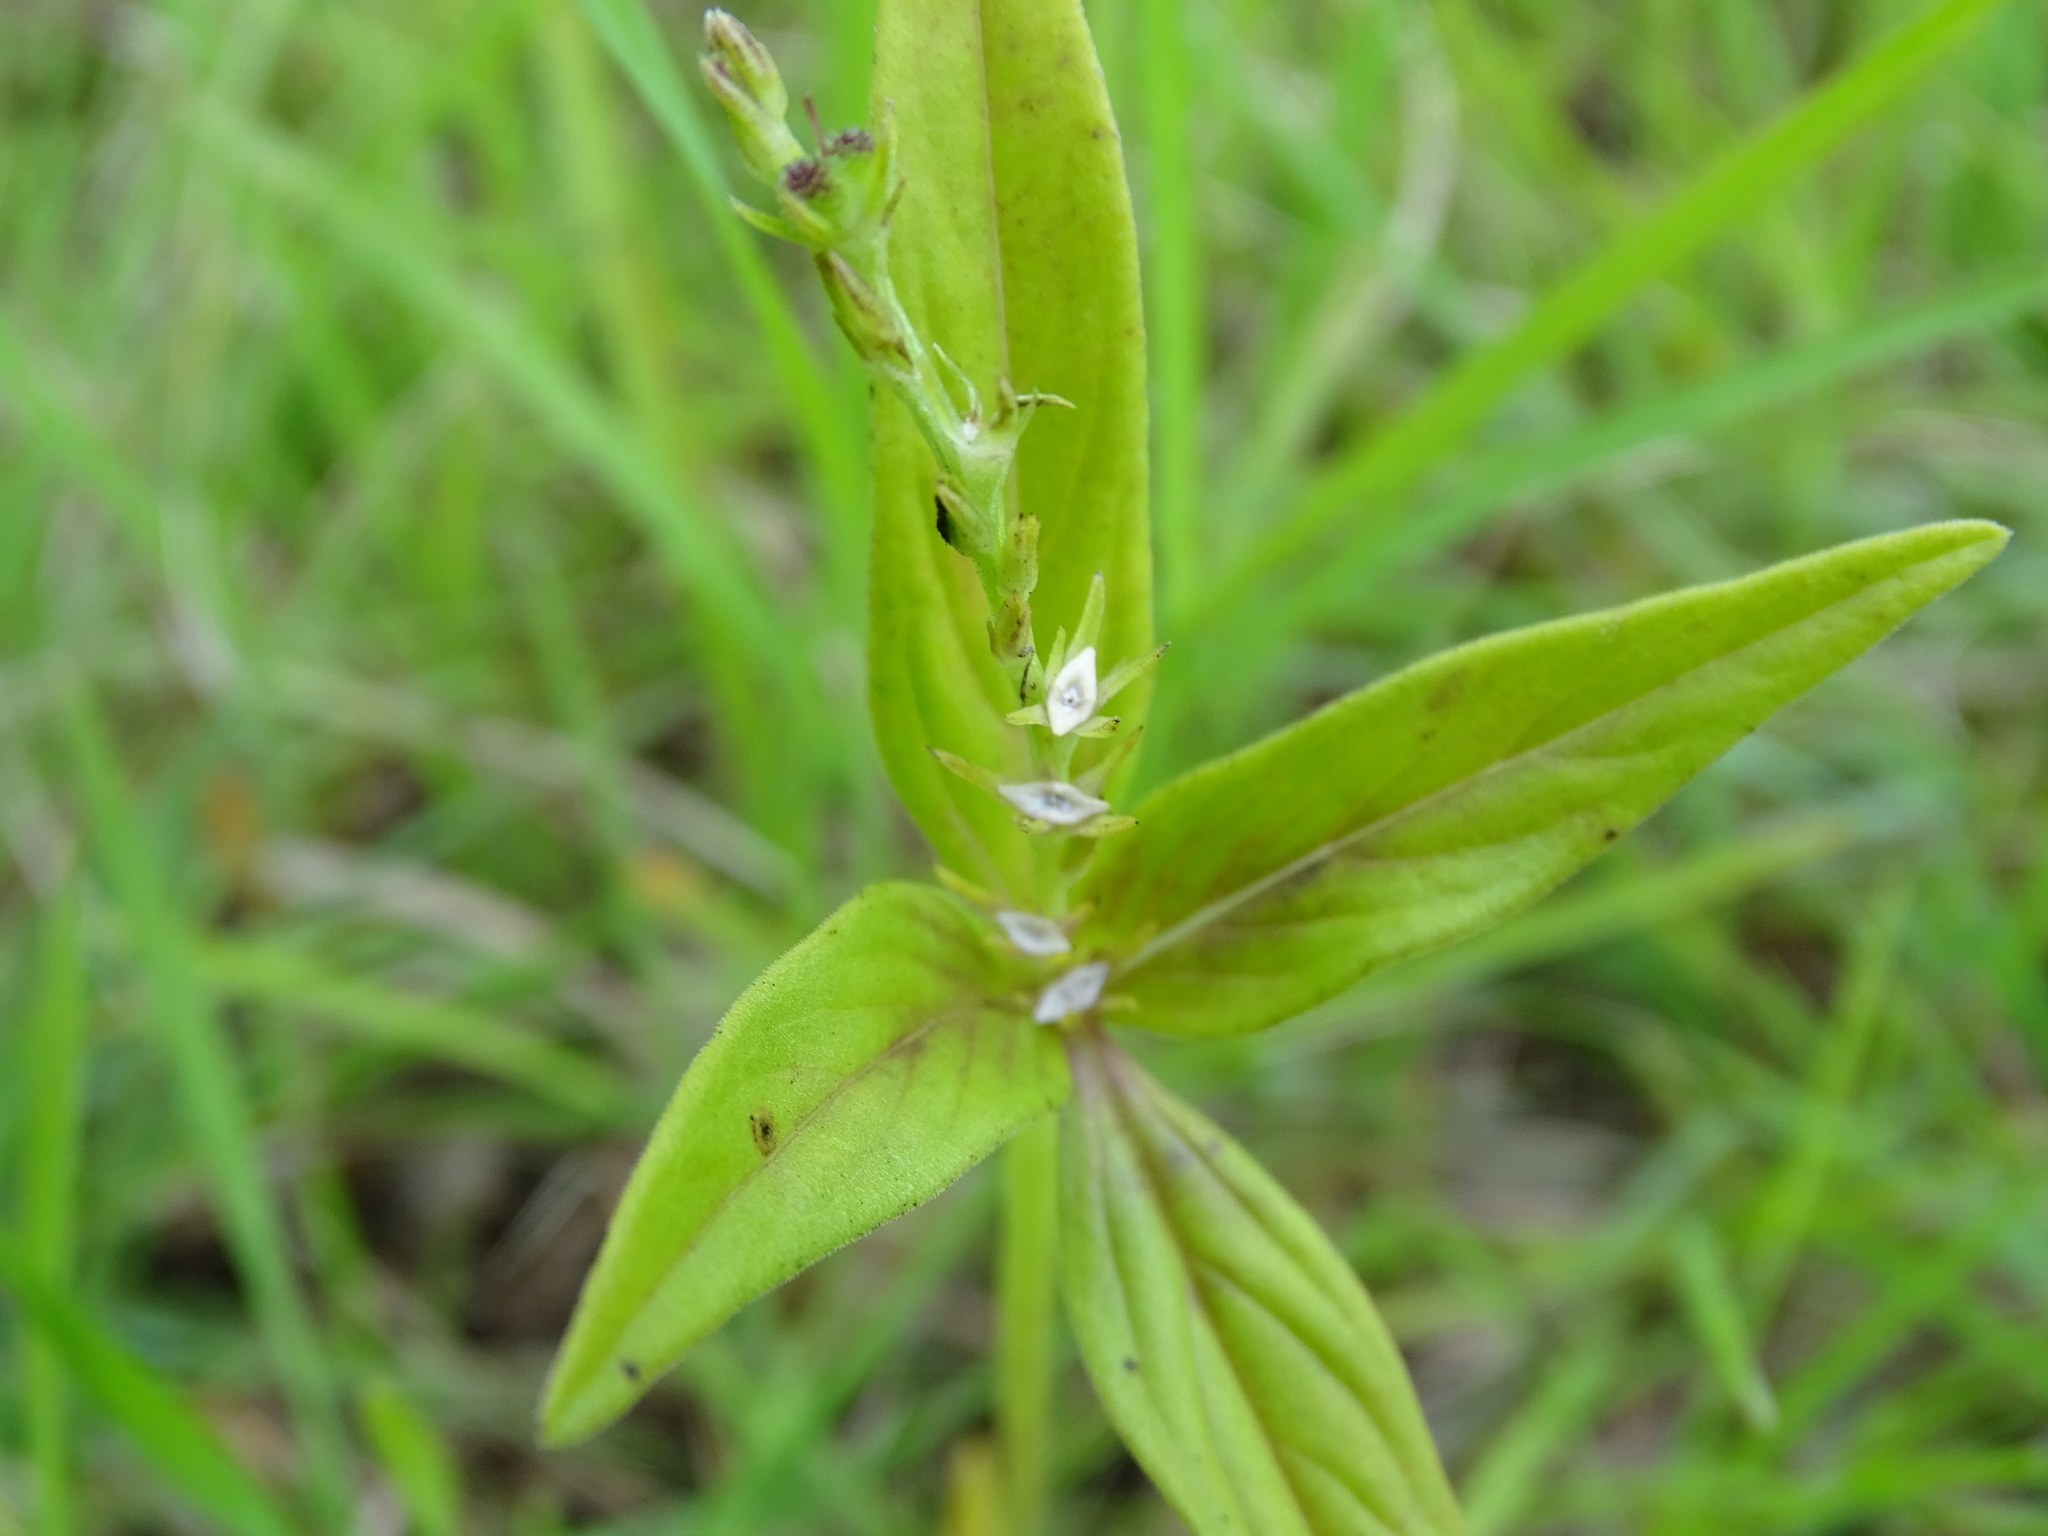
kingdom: Plantae
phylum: Tracheophyta
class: Magnoliopsida
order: Gentianales
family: Loganiaceae
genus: Spigelia
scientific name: Spigelia anthelmia
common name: West indian-pink
